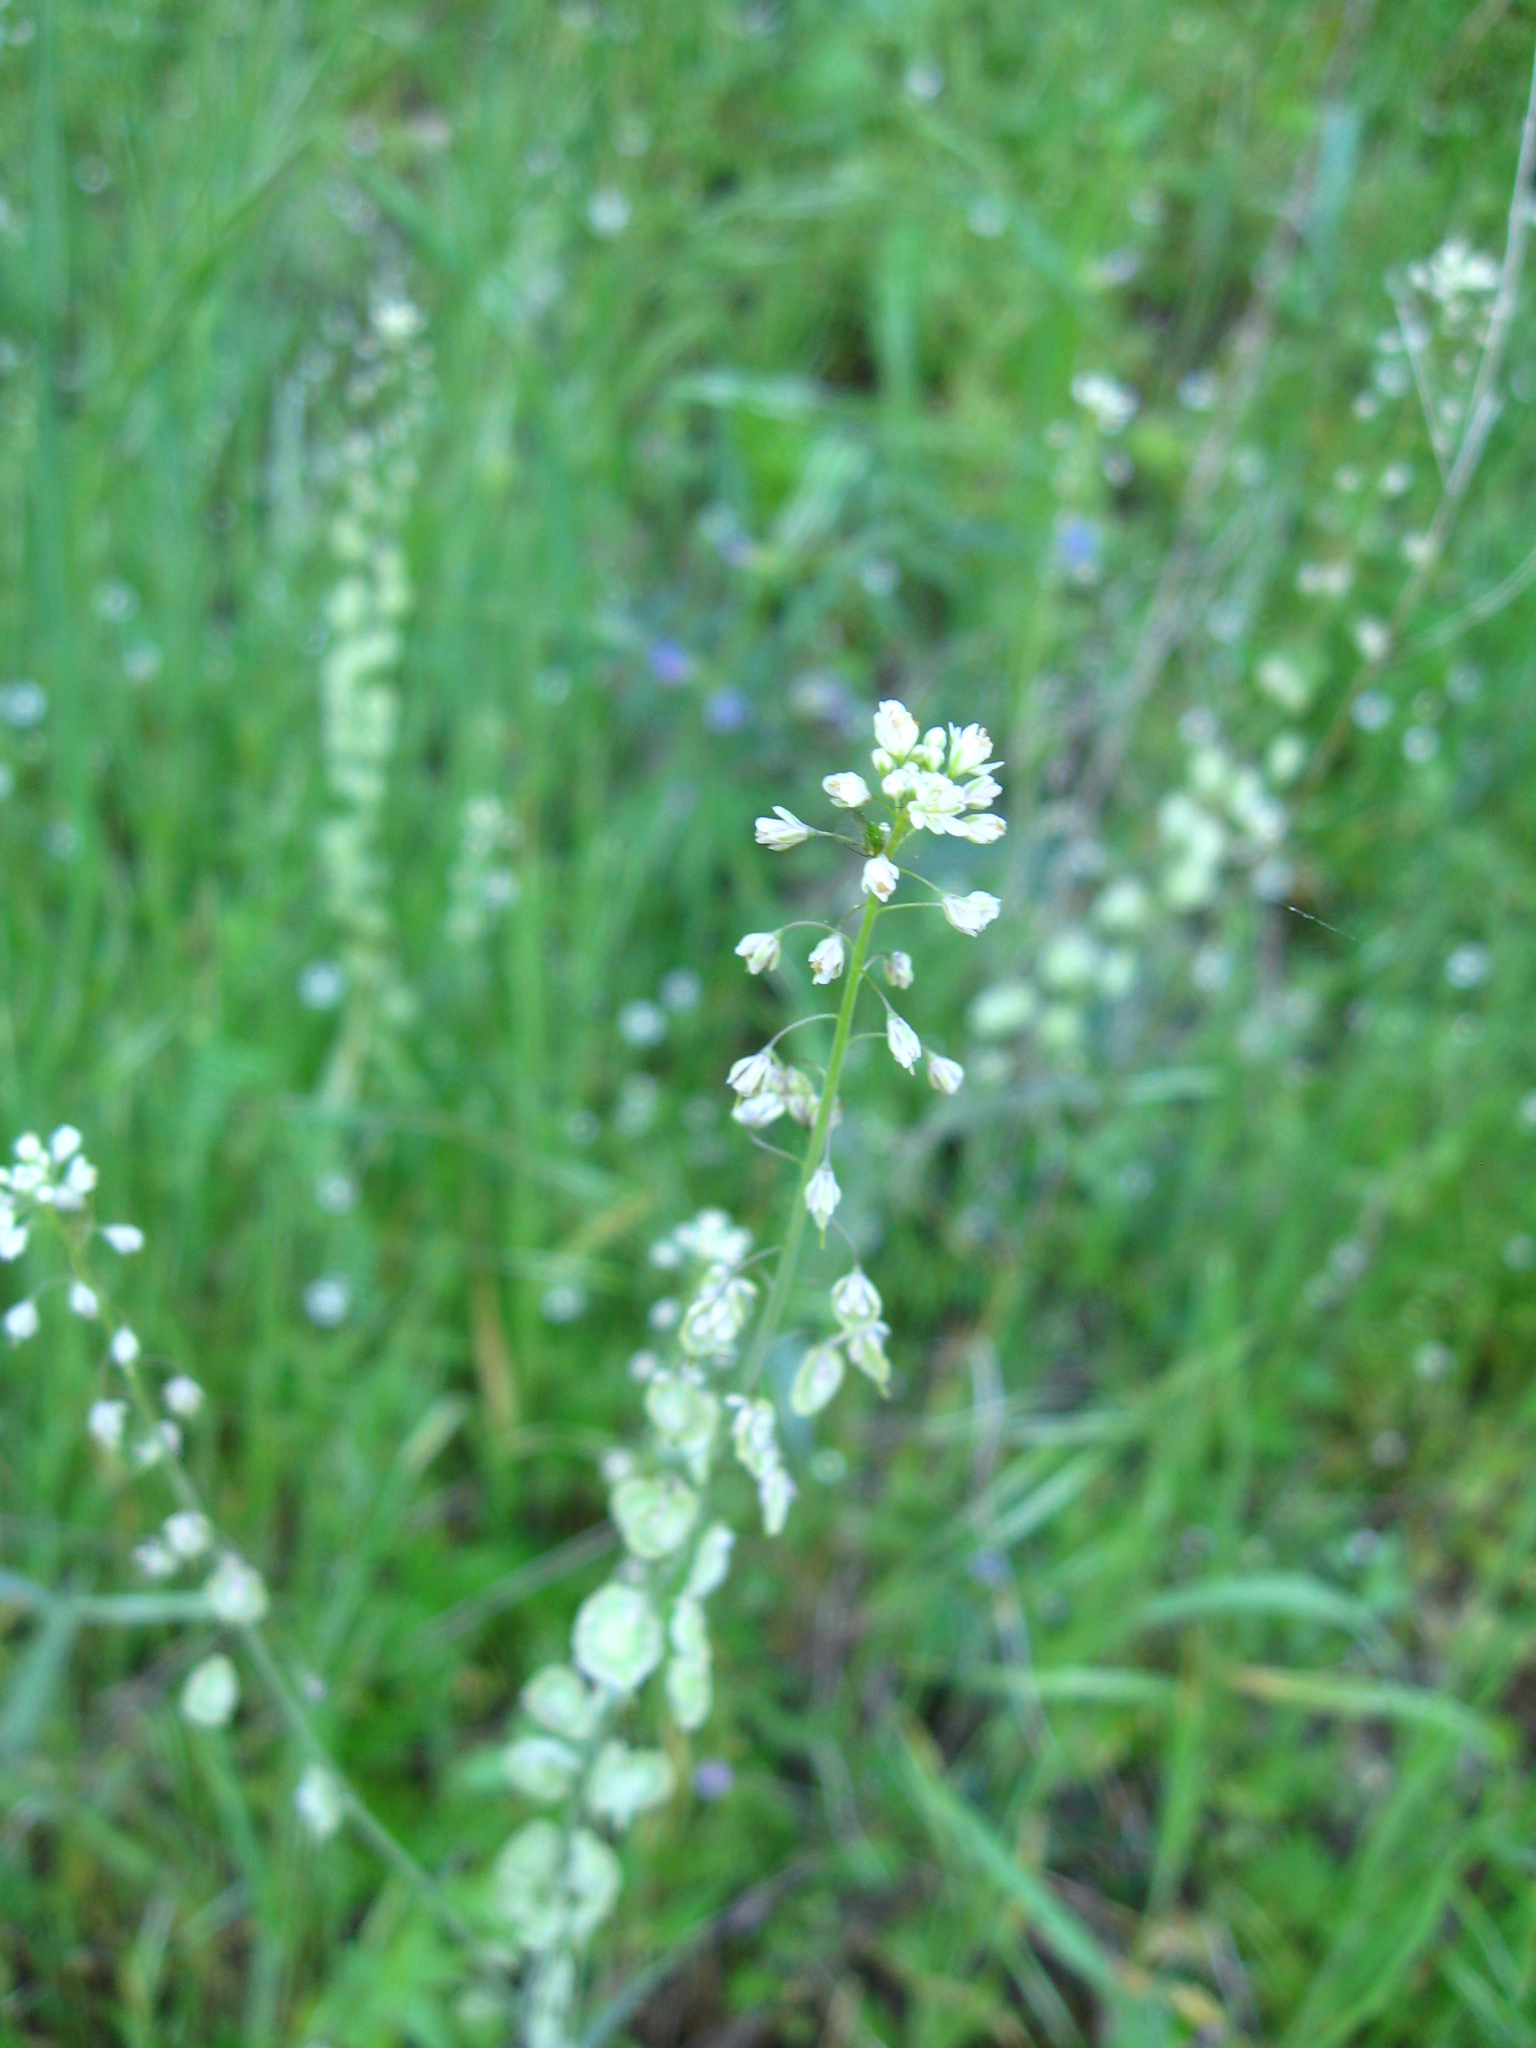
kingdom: Plantae
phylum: Tracheophyta
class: Magnoliopsida
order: Brassicales
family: Brassicaceae
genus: Thysanocarpus
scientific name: Thysanocarpus curvipes
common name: Sand fringepod
